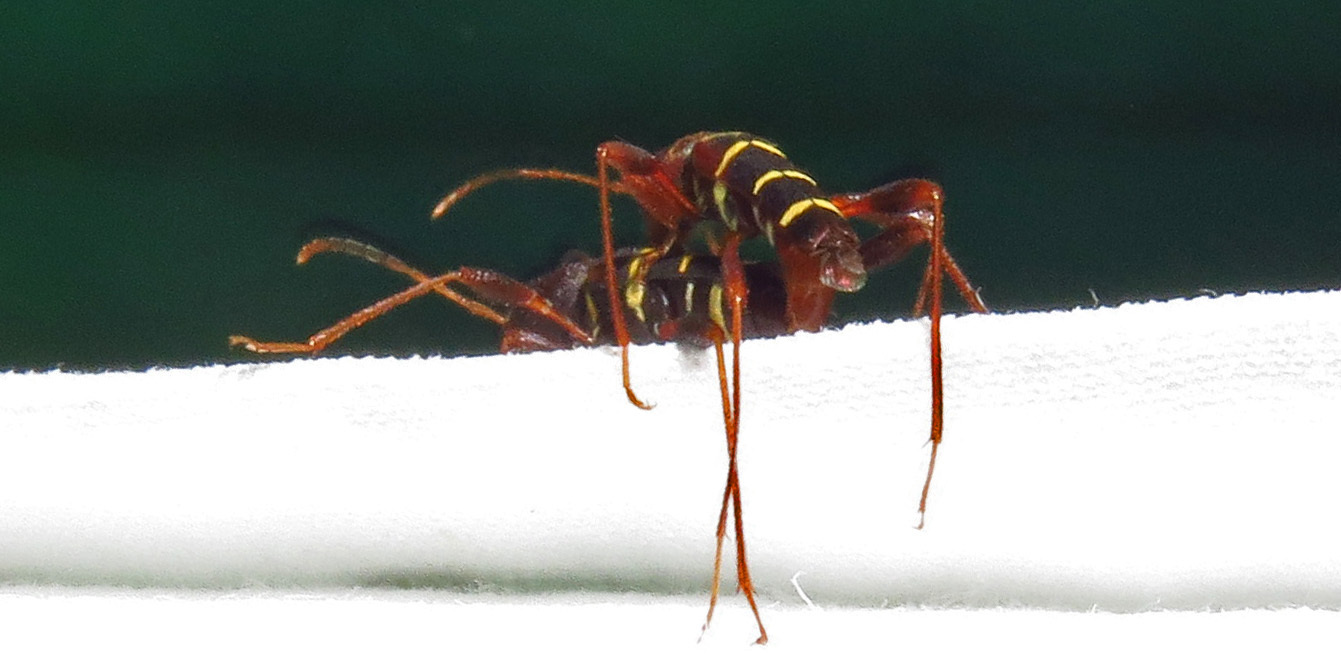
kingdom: Animalia
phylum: Arthropoda
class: Insecta
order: Coleoptera
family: Cerambycidae
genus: Neoclytus
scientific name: Neoclytus acuminatus
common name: Read-headed ash borer
